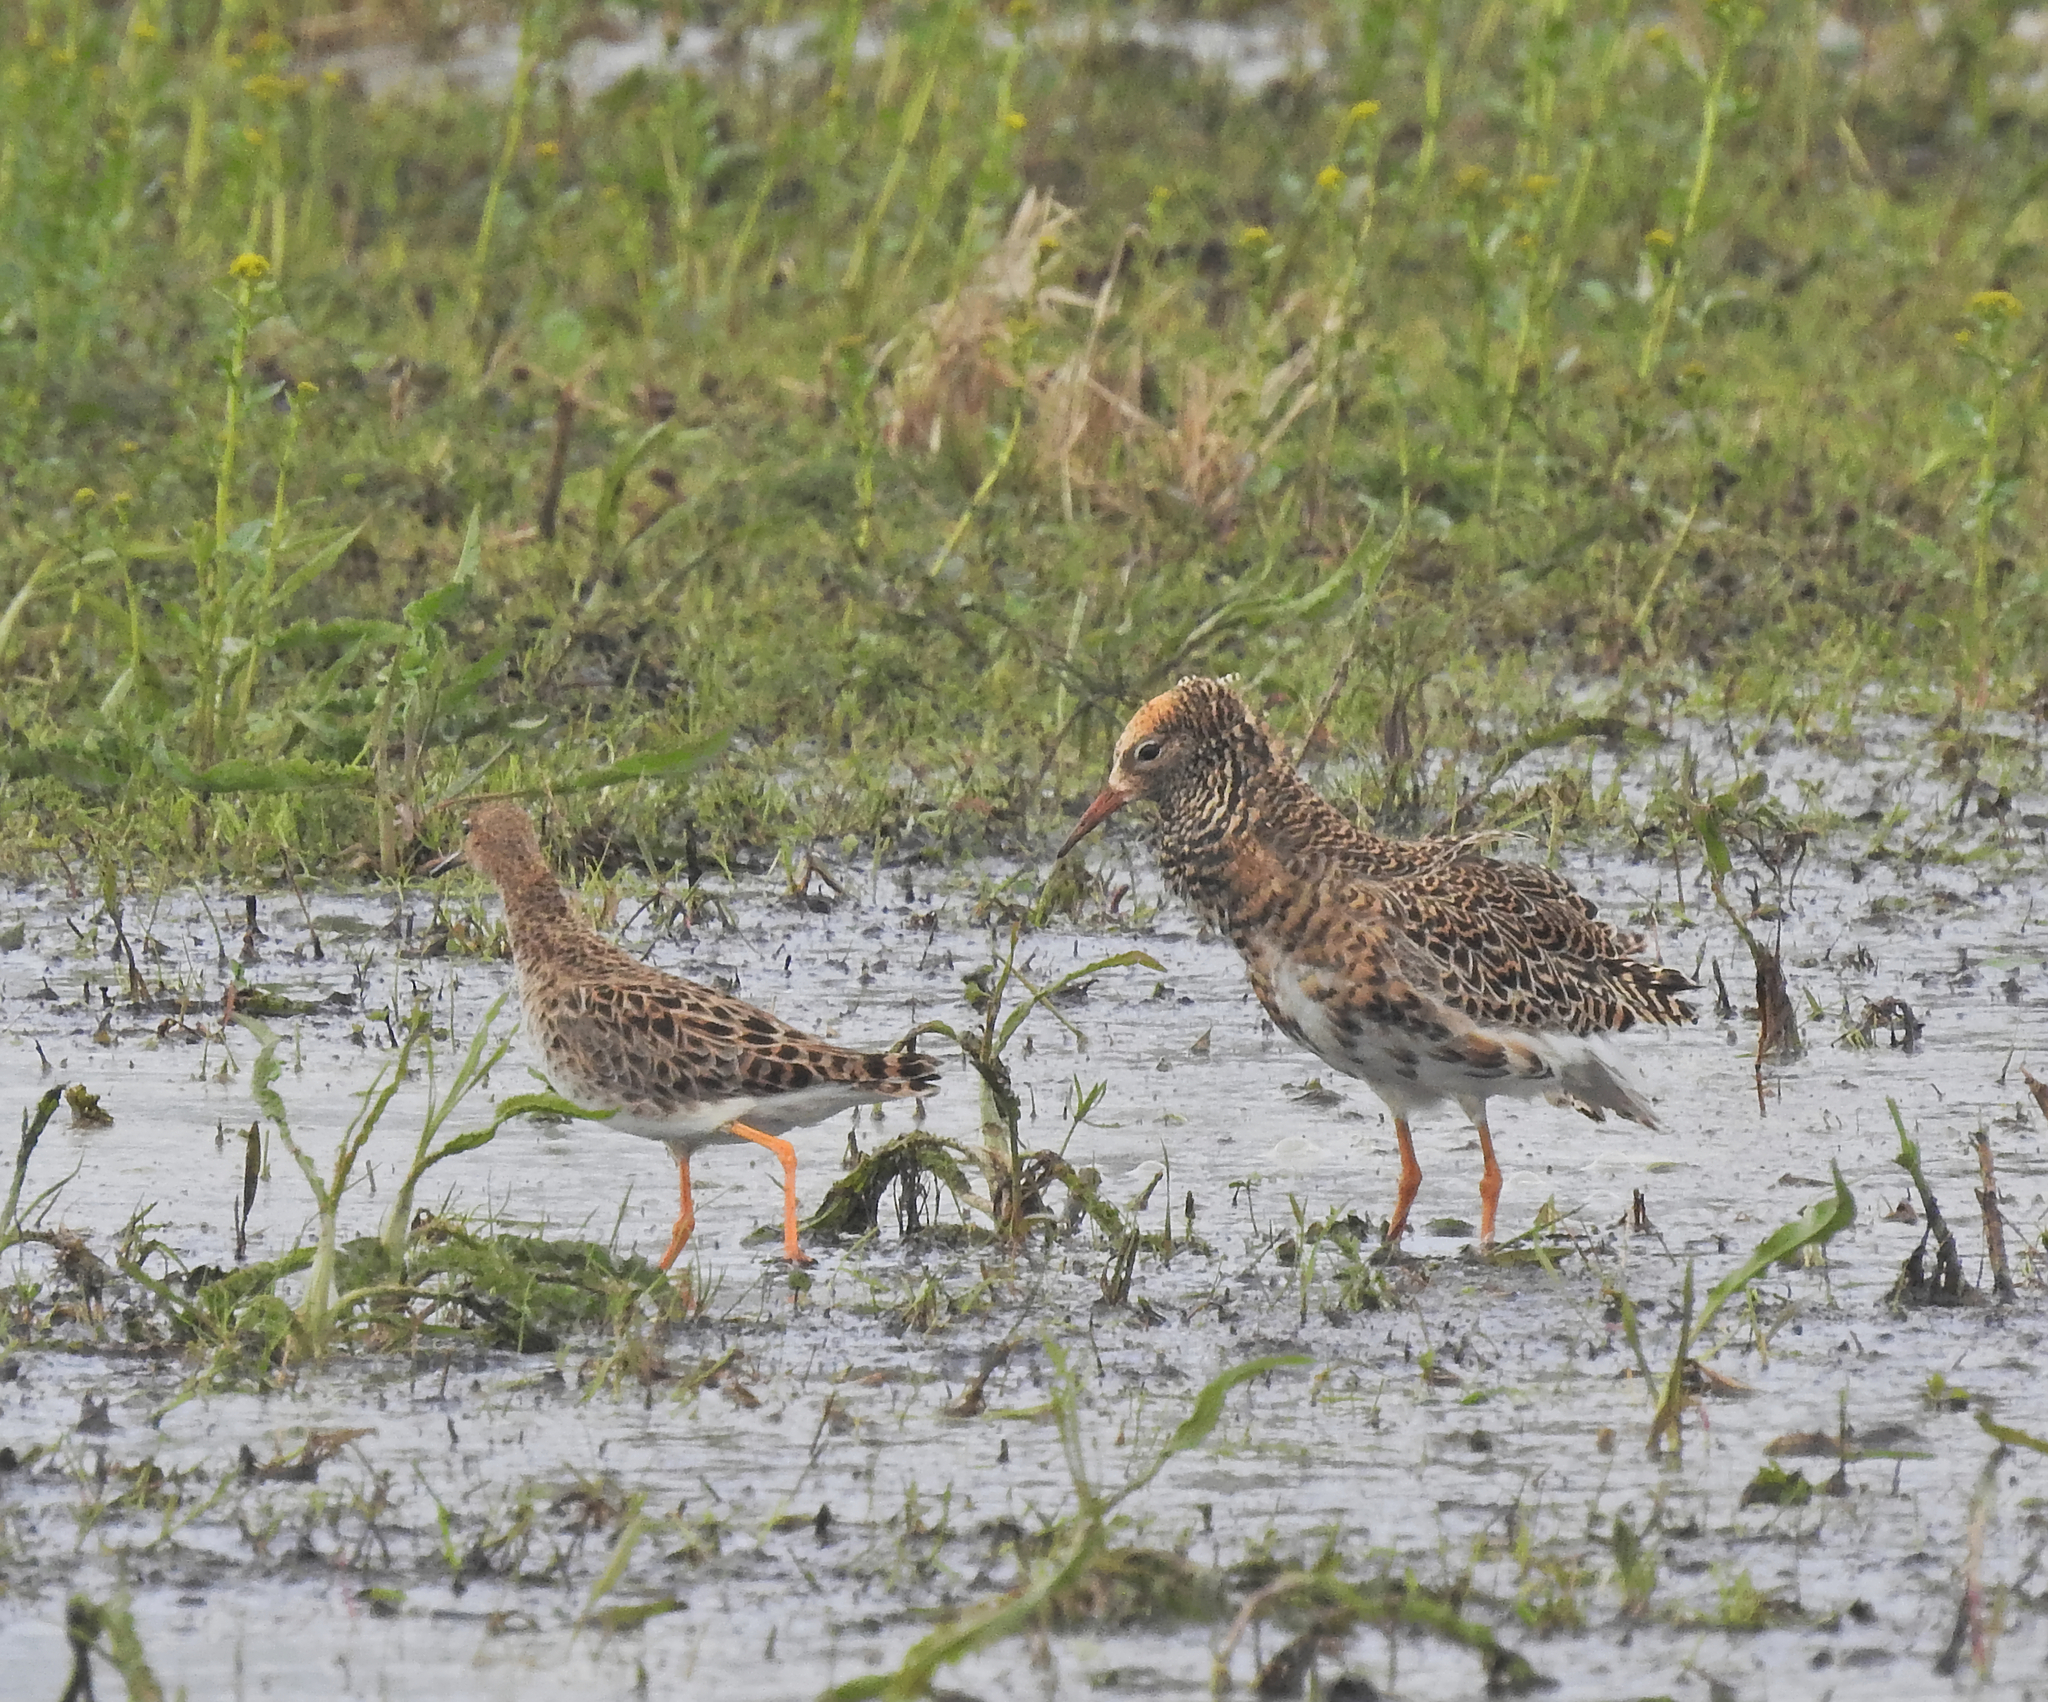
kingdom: Animalia
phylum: Chordata
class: Aves
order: Charadriiformes
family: Scolopacidae
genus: Calidris
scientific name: Calidris pugnax
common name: Ruff
